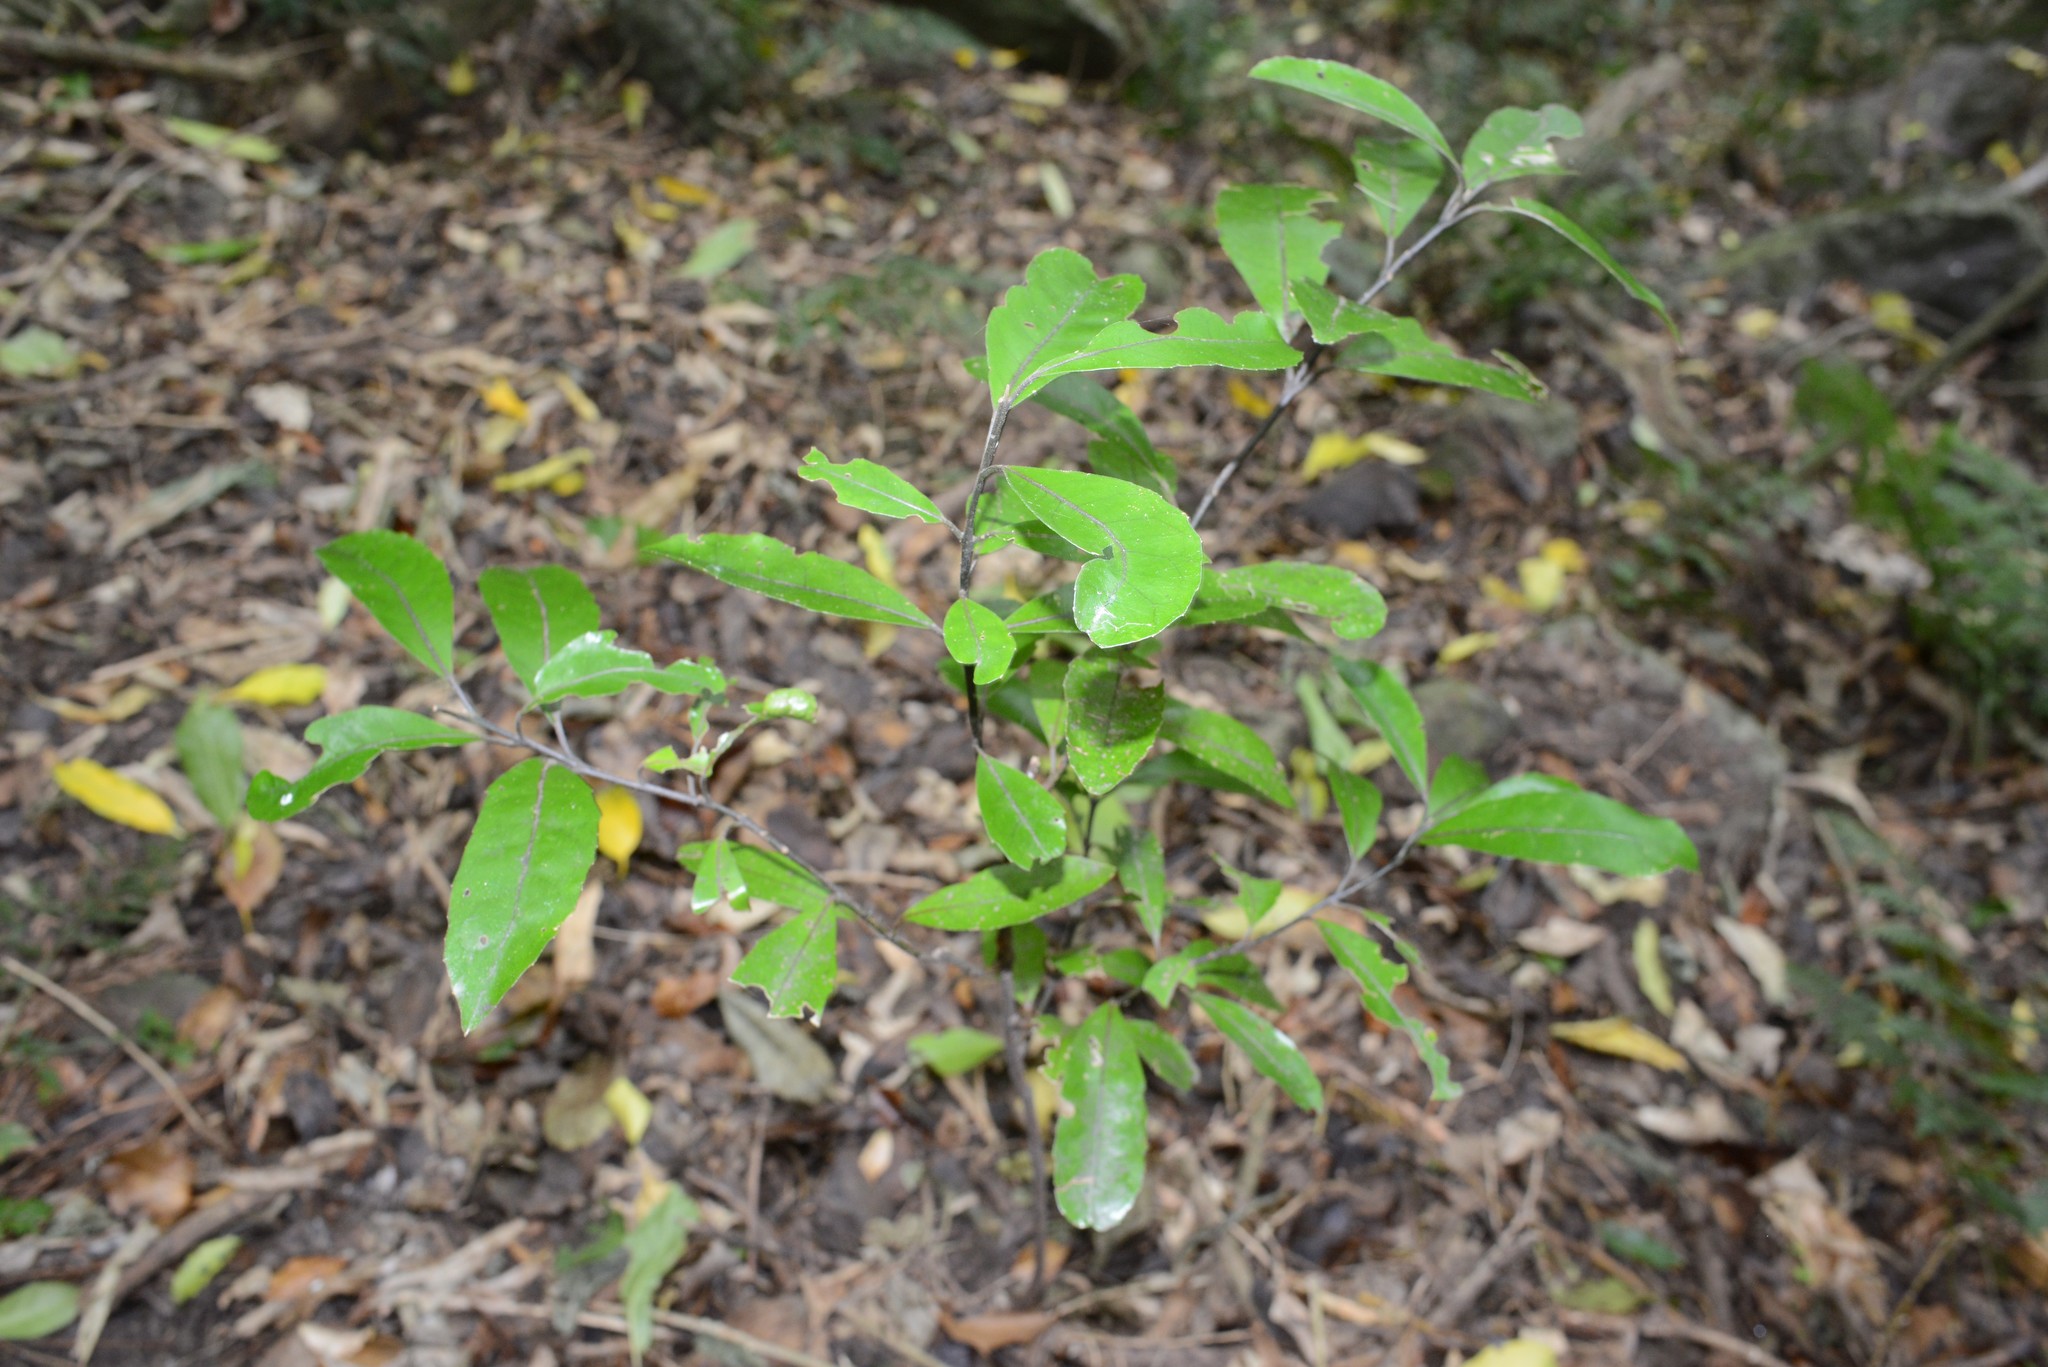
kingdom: Plantae
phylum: Tracheophyta
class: Magnoliopsida
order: Laurales
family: Monimiaceae
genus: Hedycarya
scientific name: Hedycarya arborea
